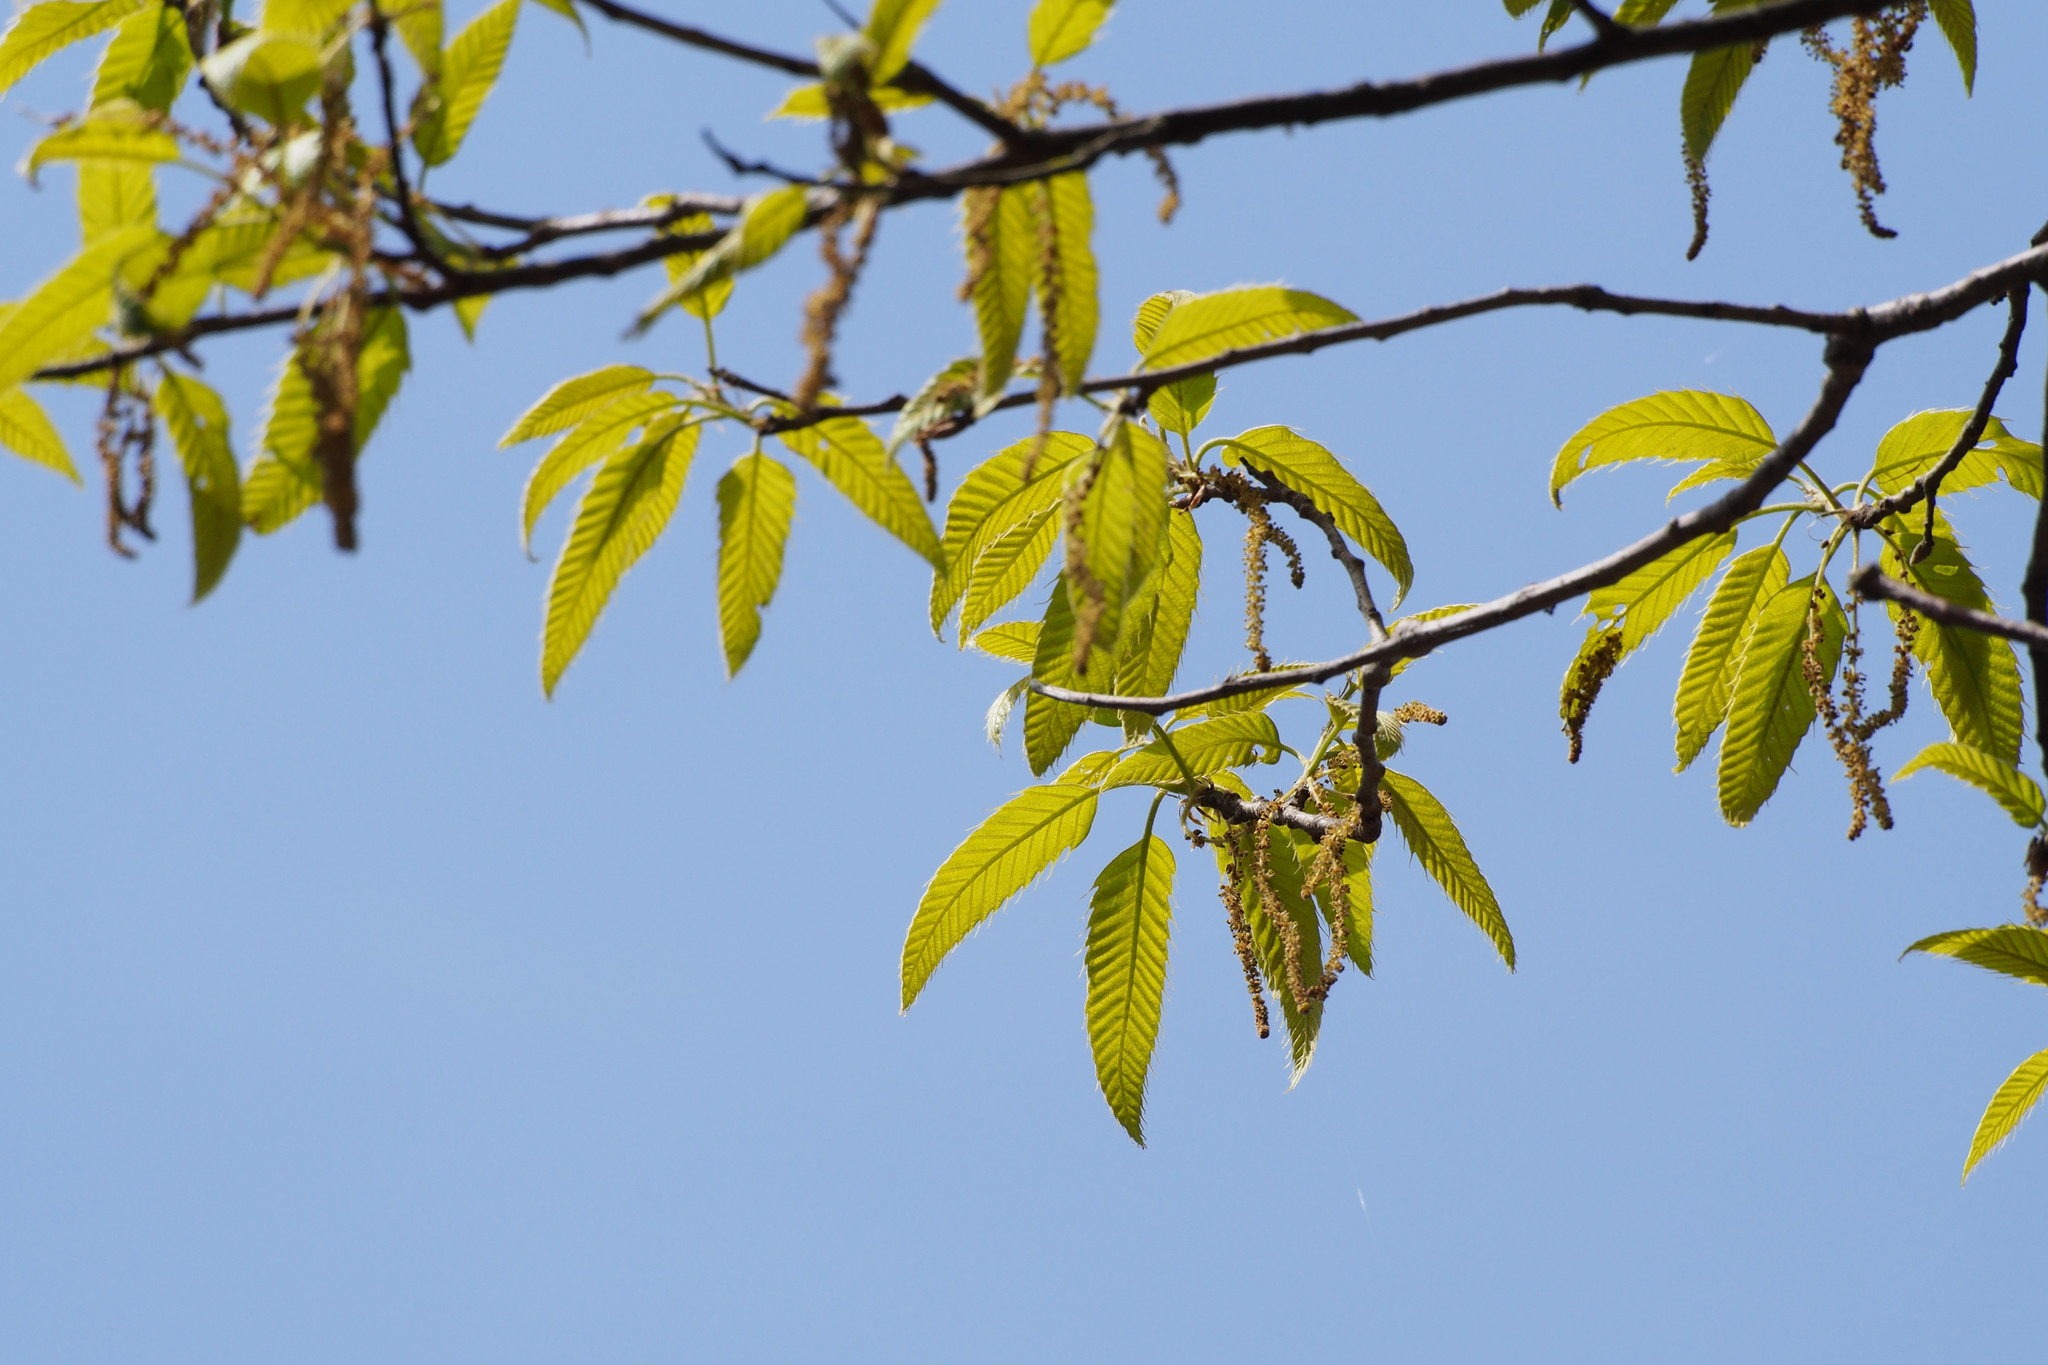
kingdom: Plantae
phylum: Tracheophyta
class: Magnoliopsida
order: Fagales
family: Fagaceae
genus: Quercus
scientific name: Quercus acutissima
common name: Sawtooth oak
